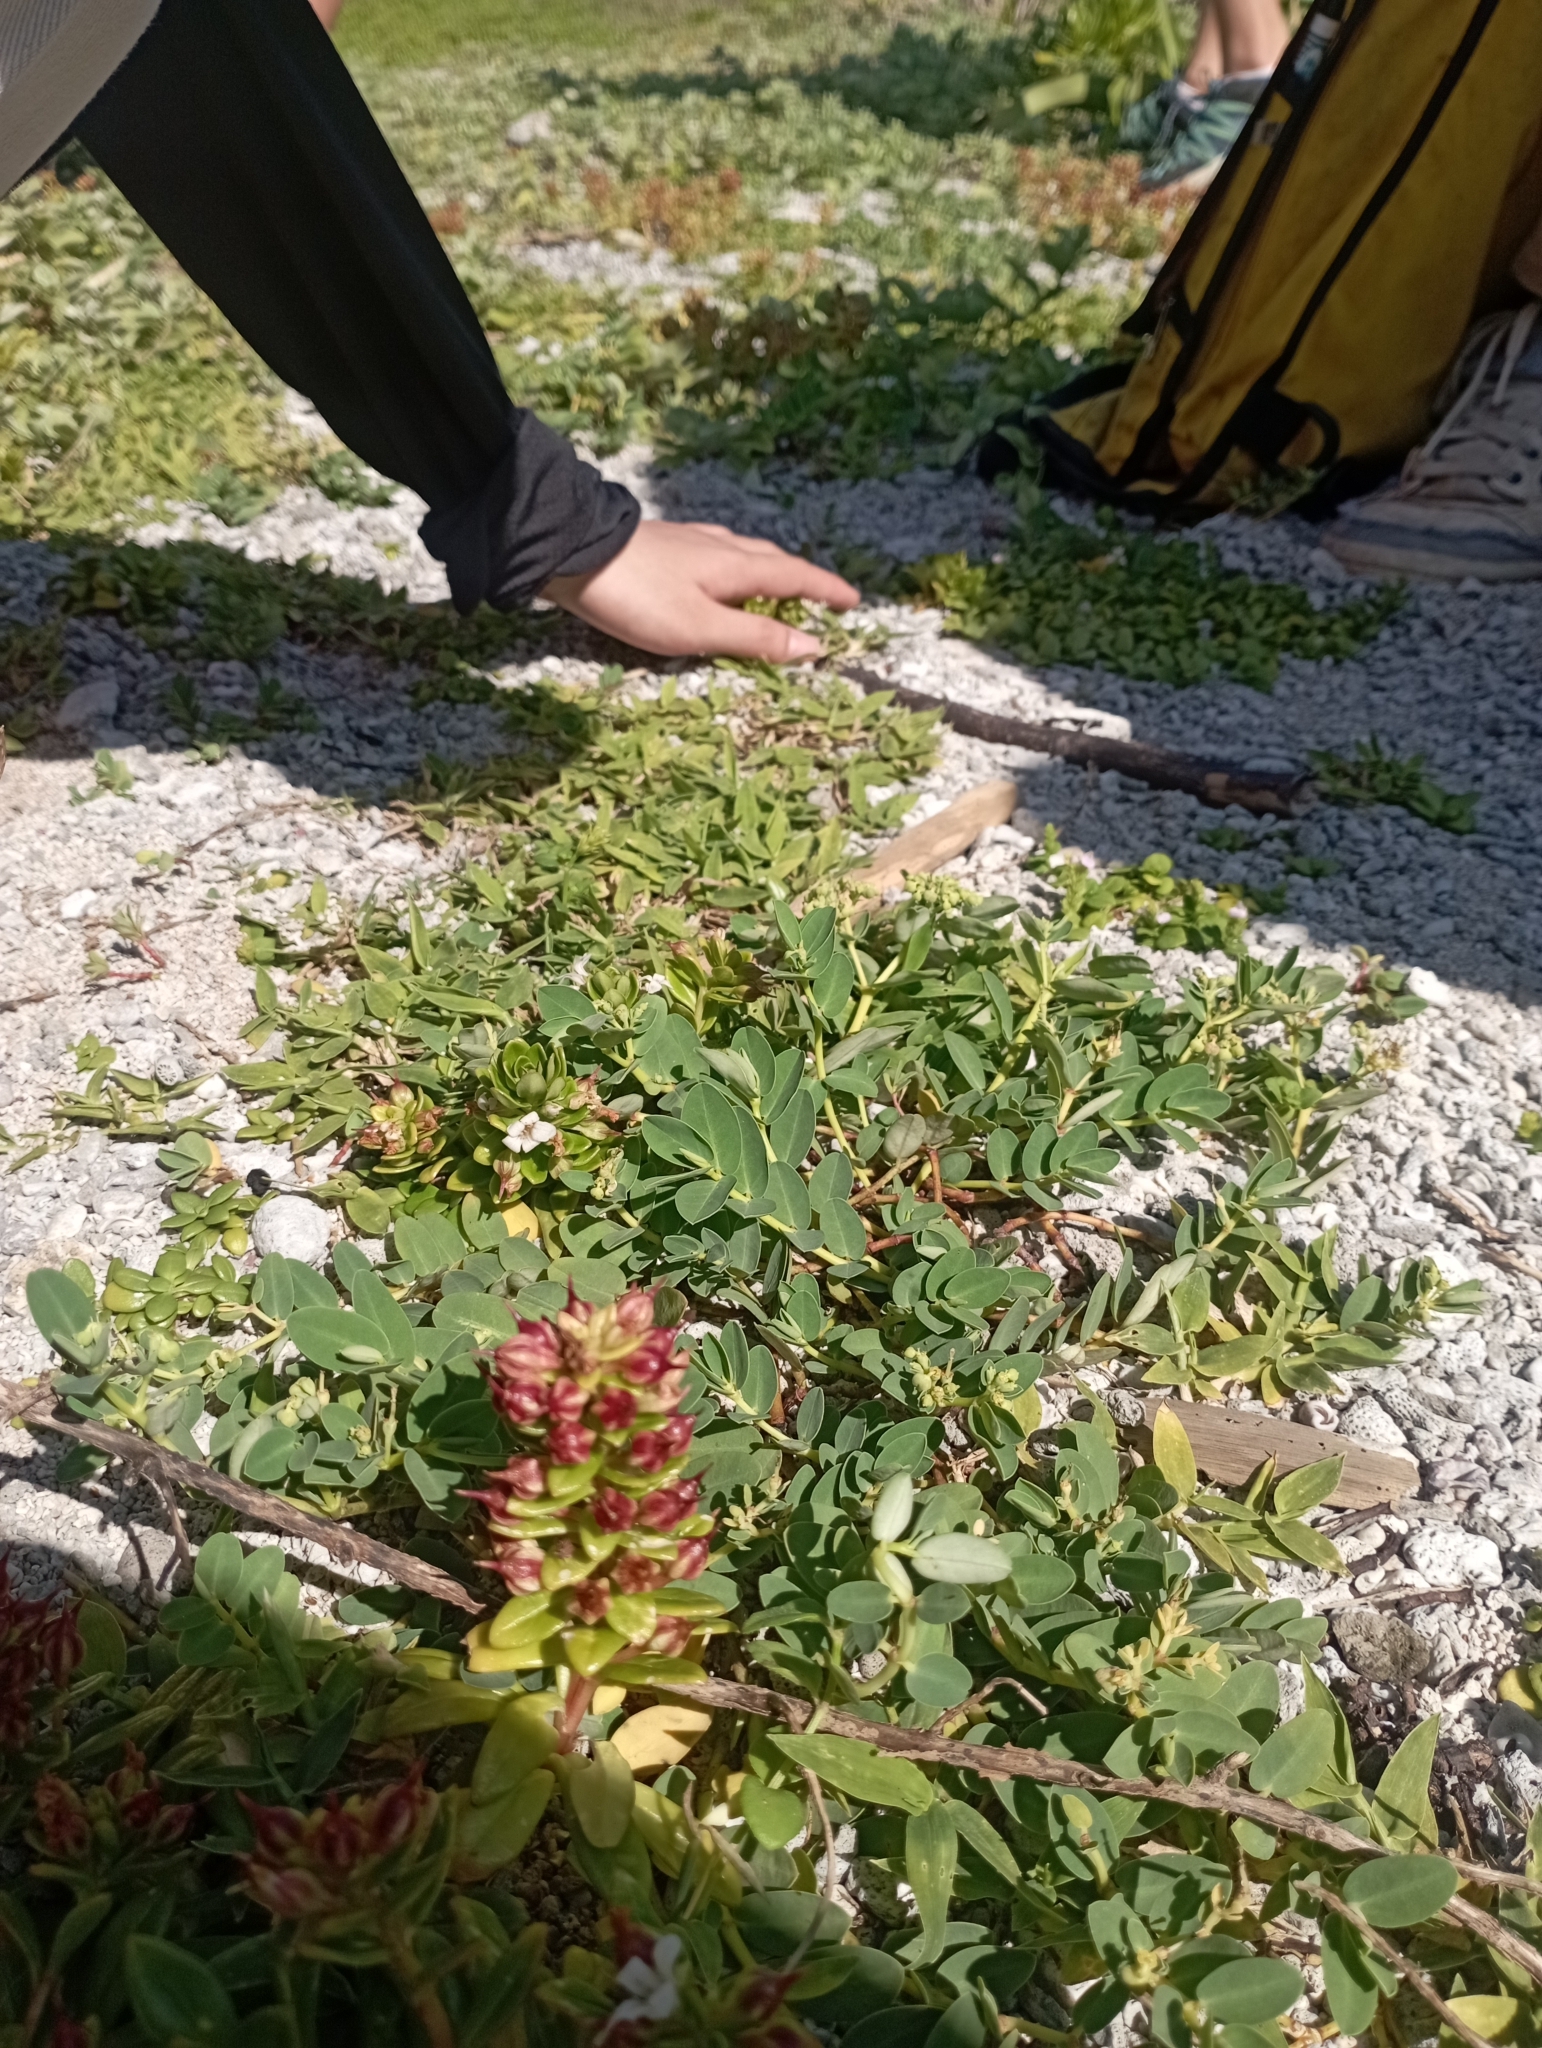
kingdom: Plantae
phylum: Tracheophyta
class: Magnoliopsida
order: Ericales
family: Primulaceae
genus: Lysimachia
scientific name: Lysimachia mauritiana
